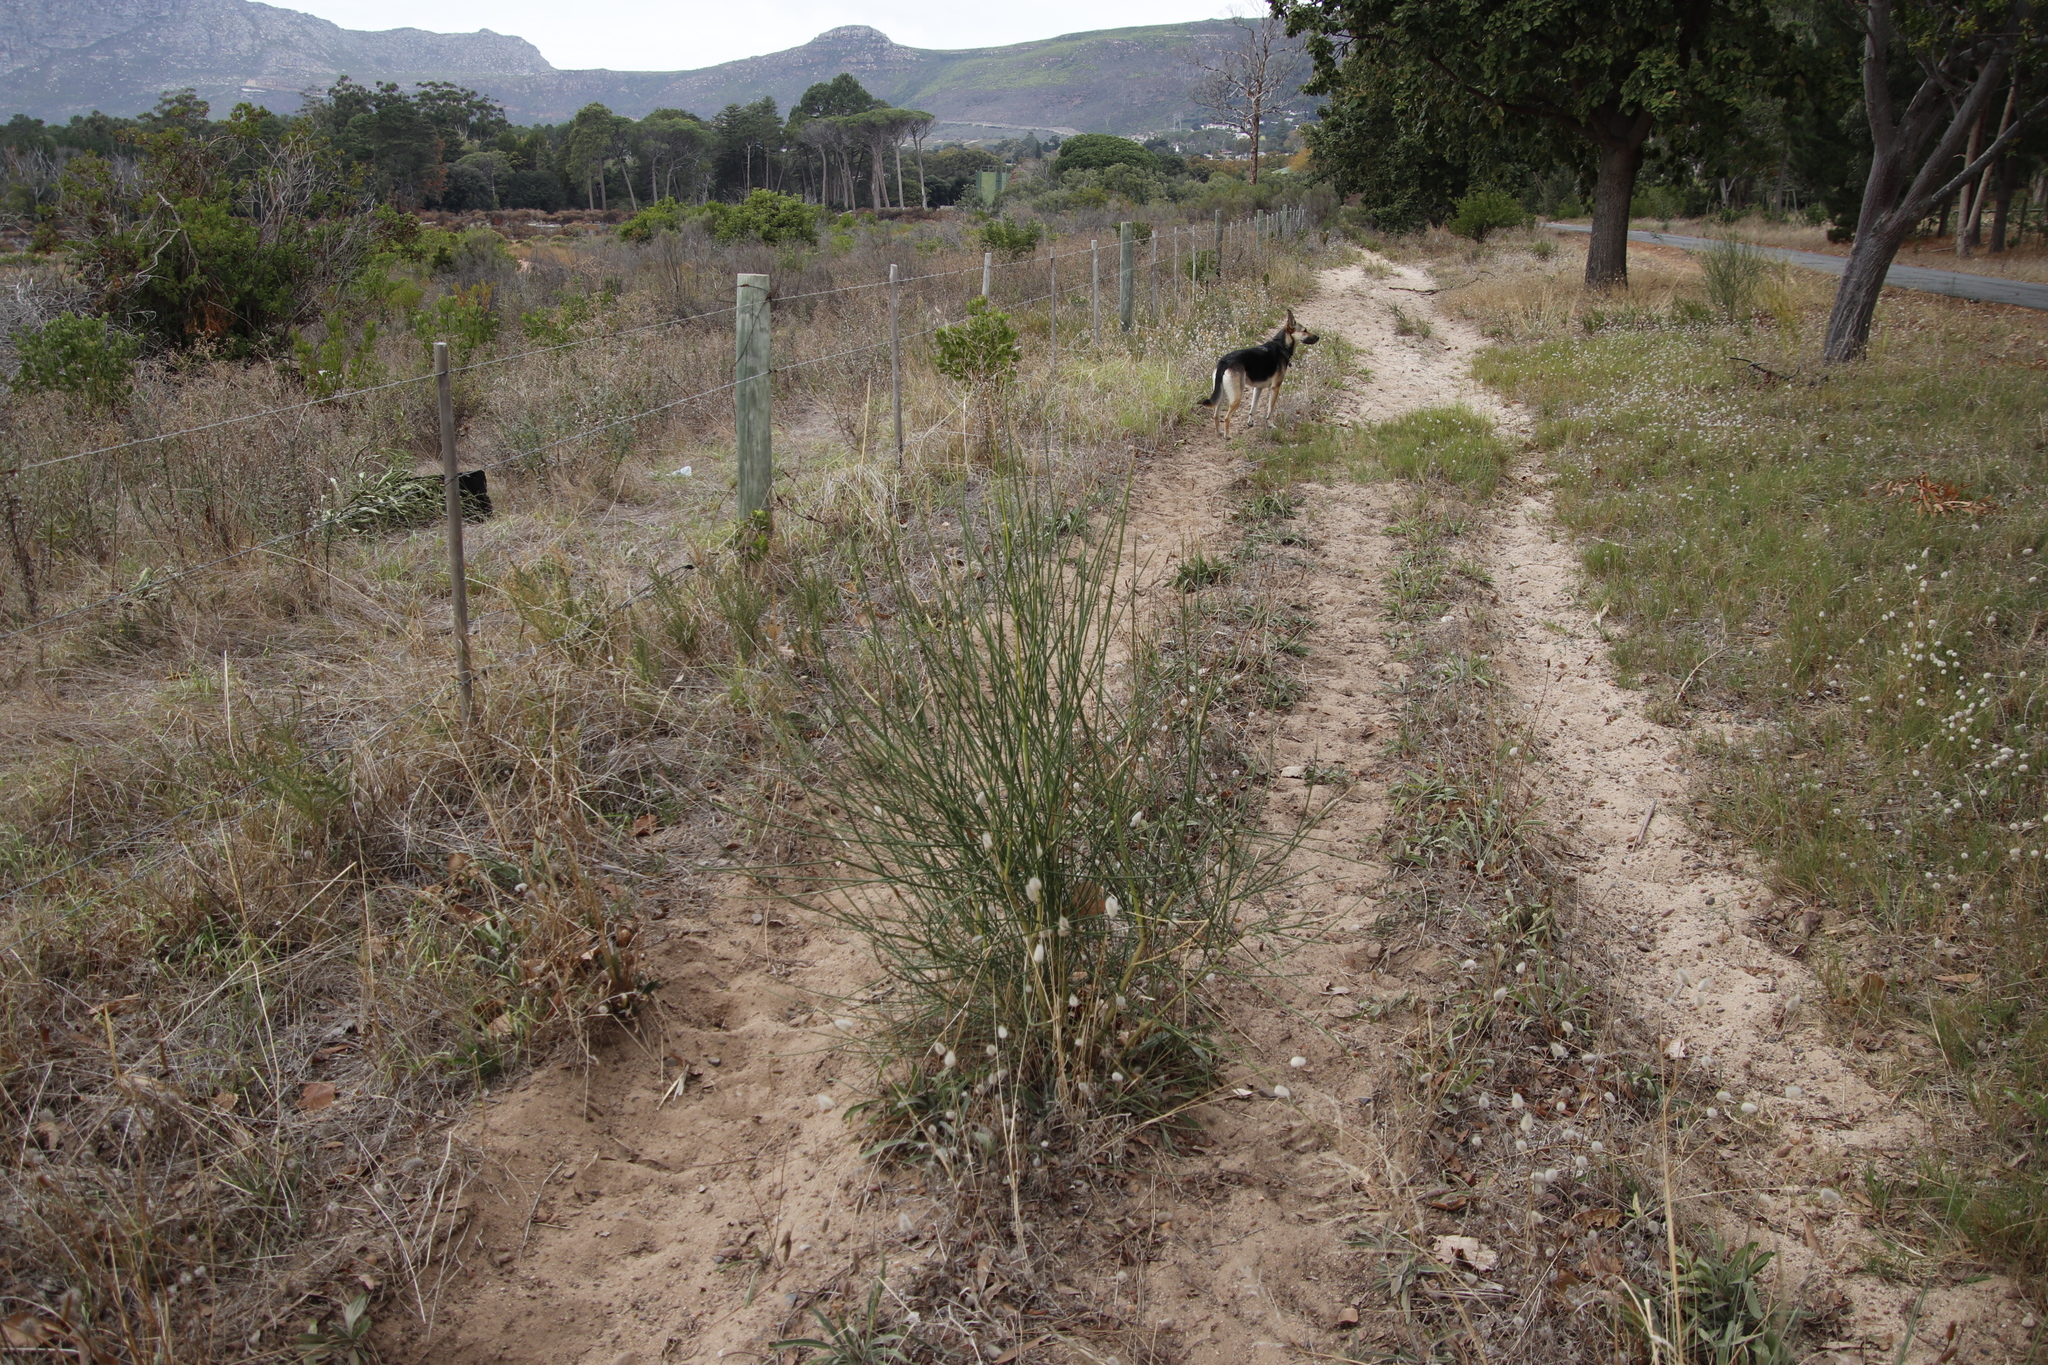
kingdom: Plantae
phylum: Tracheophyta
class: Magnoliopsida
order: Fabales
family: Fabaceae
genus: Spartium
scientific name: Spartium junceum
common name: Spanish broom
